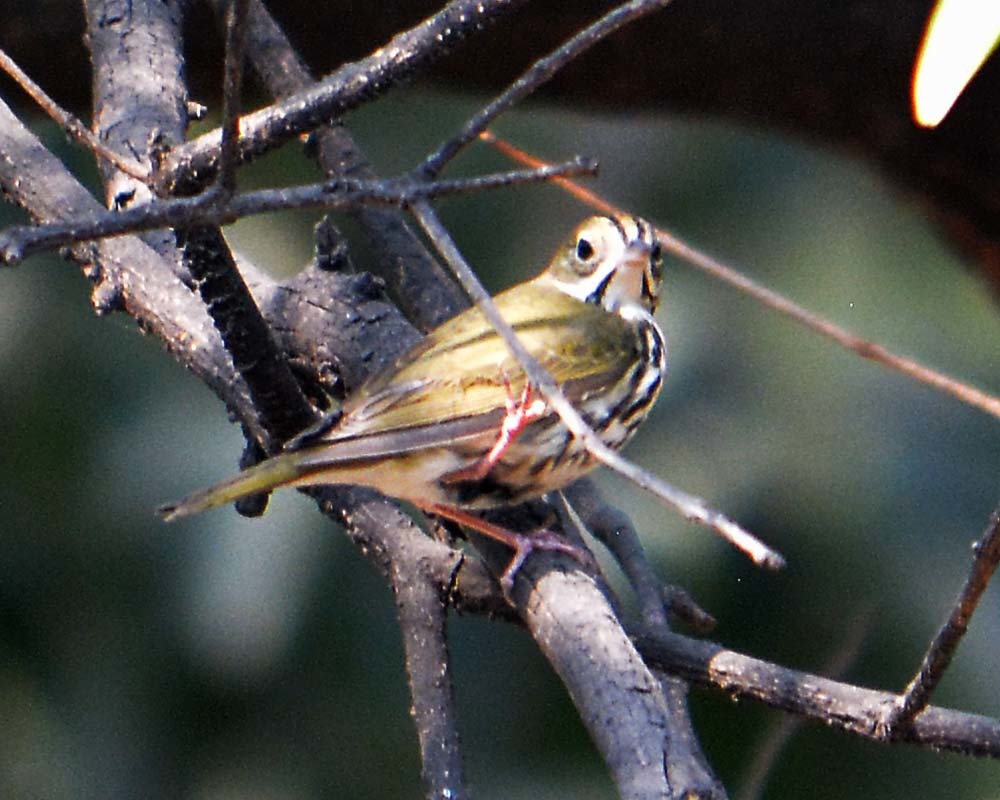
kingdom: Animalia
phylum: Chordata
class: Aves
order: Passeriformes
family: Parulidae
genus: Seiurus
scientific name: Seiurus aurocapilla
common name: Ovenbird
